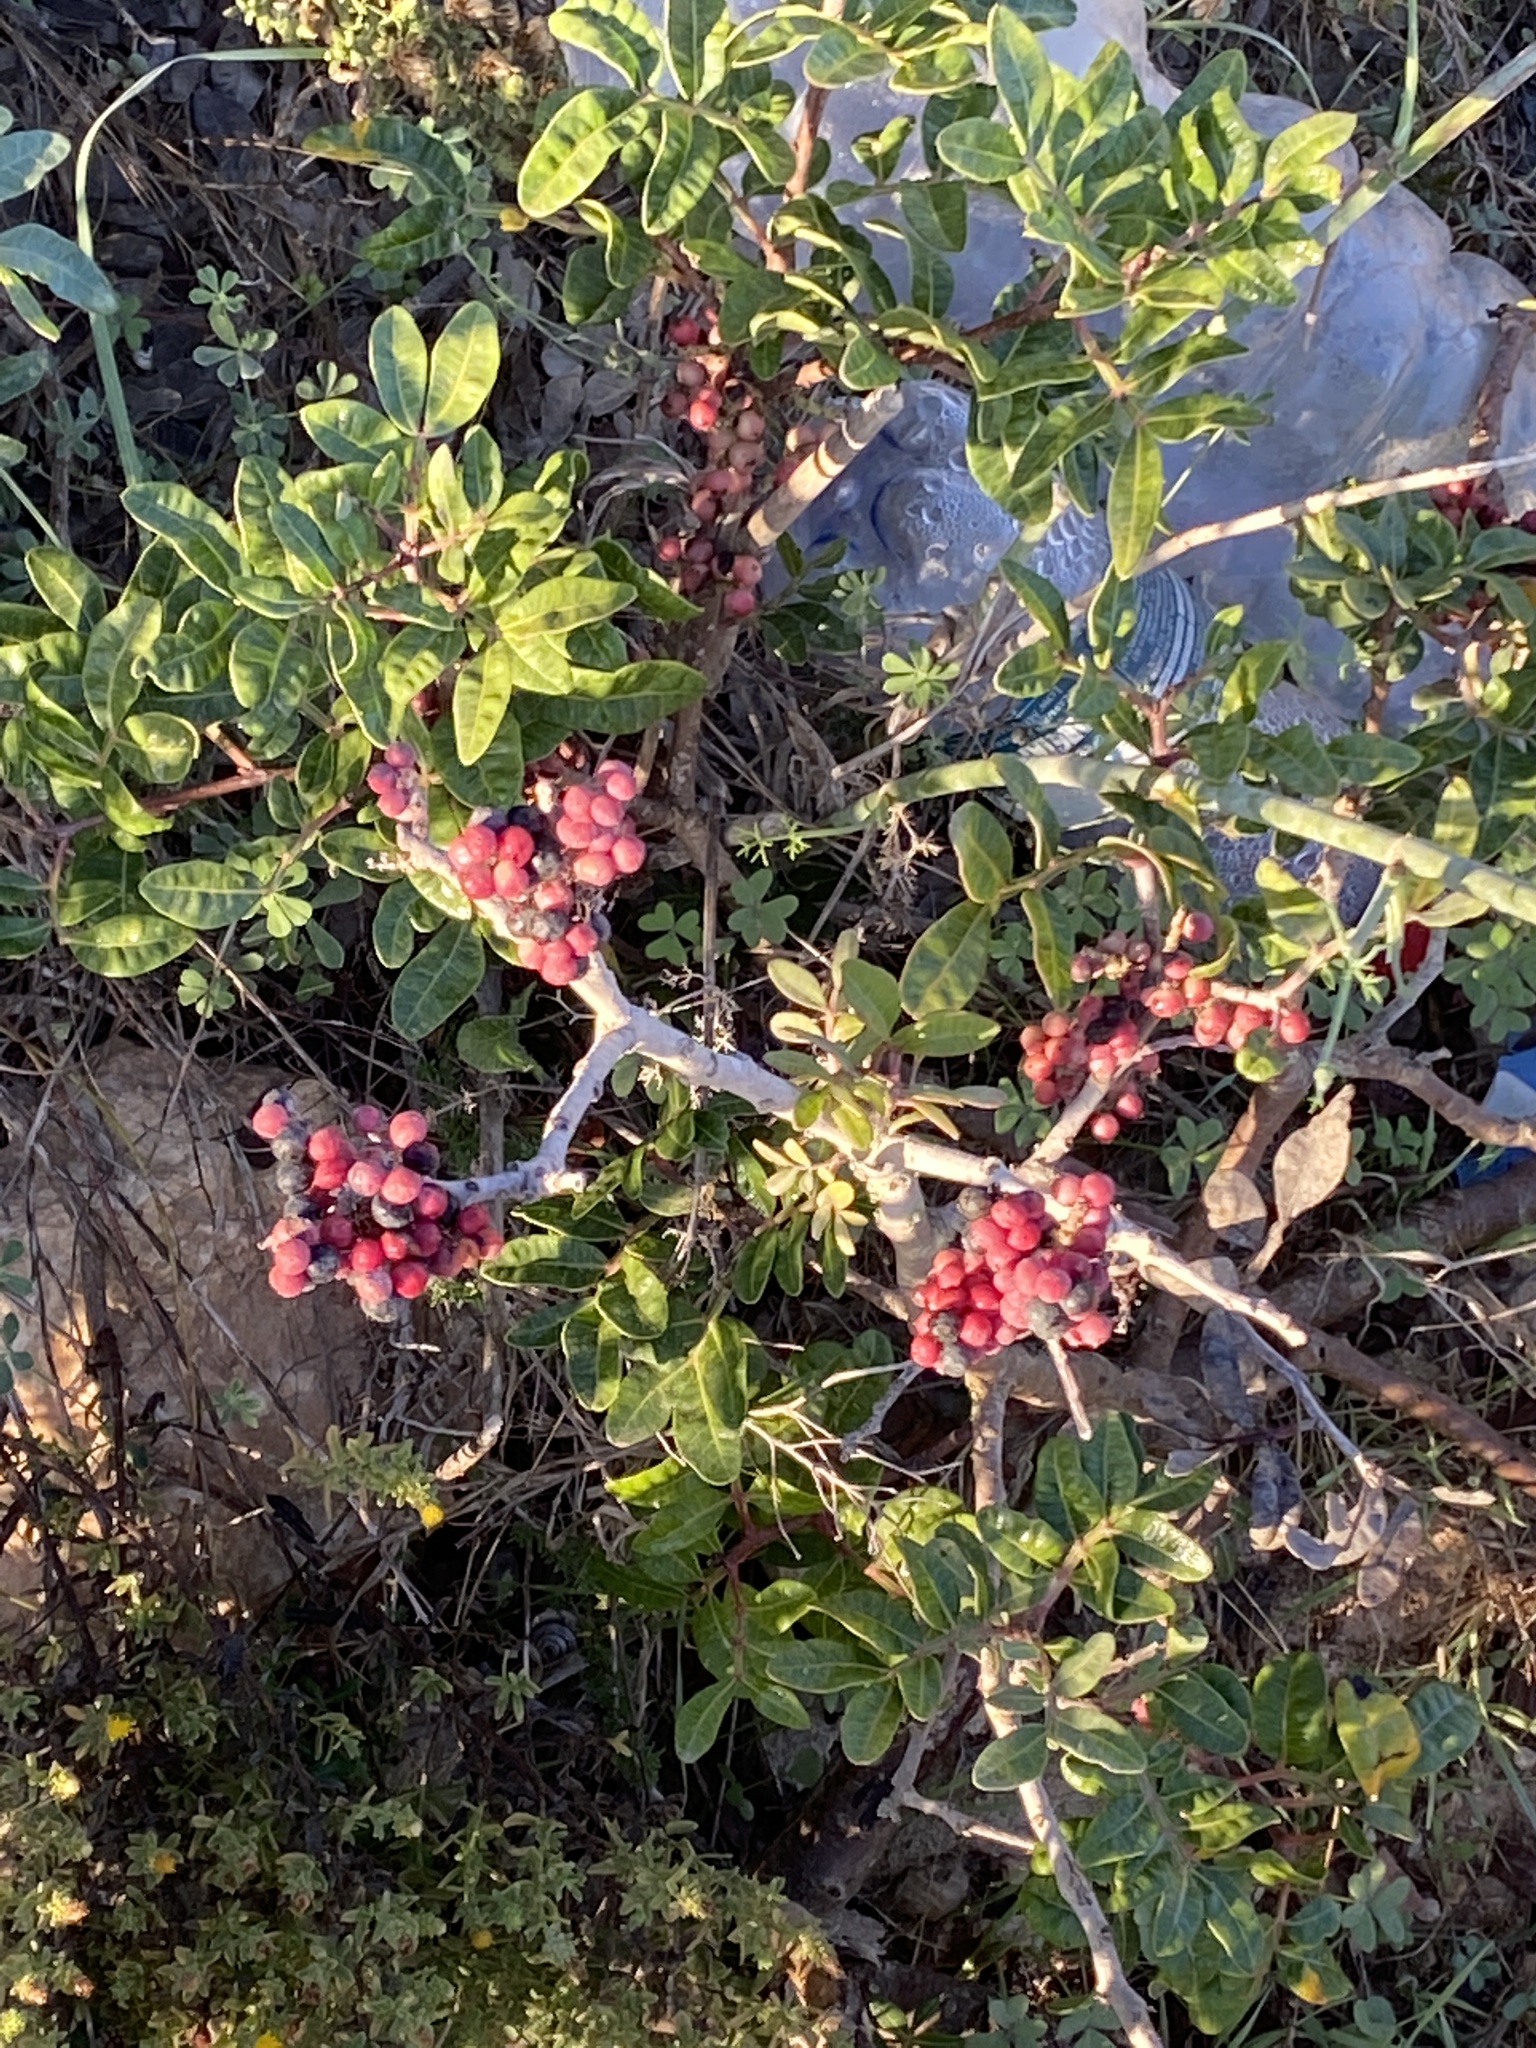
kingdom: Plantae
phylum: Tracheophyta
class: Magnoliopsida
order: Sapindales
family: Anacardiaceae
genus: Pistacia
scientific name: Pistacia lentiscus
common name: Lentisk
